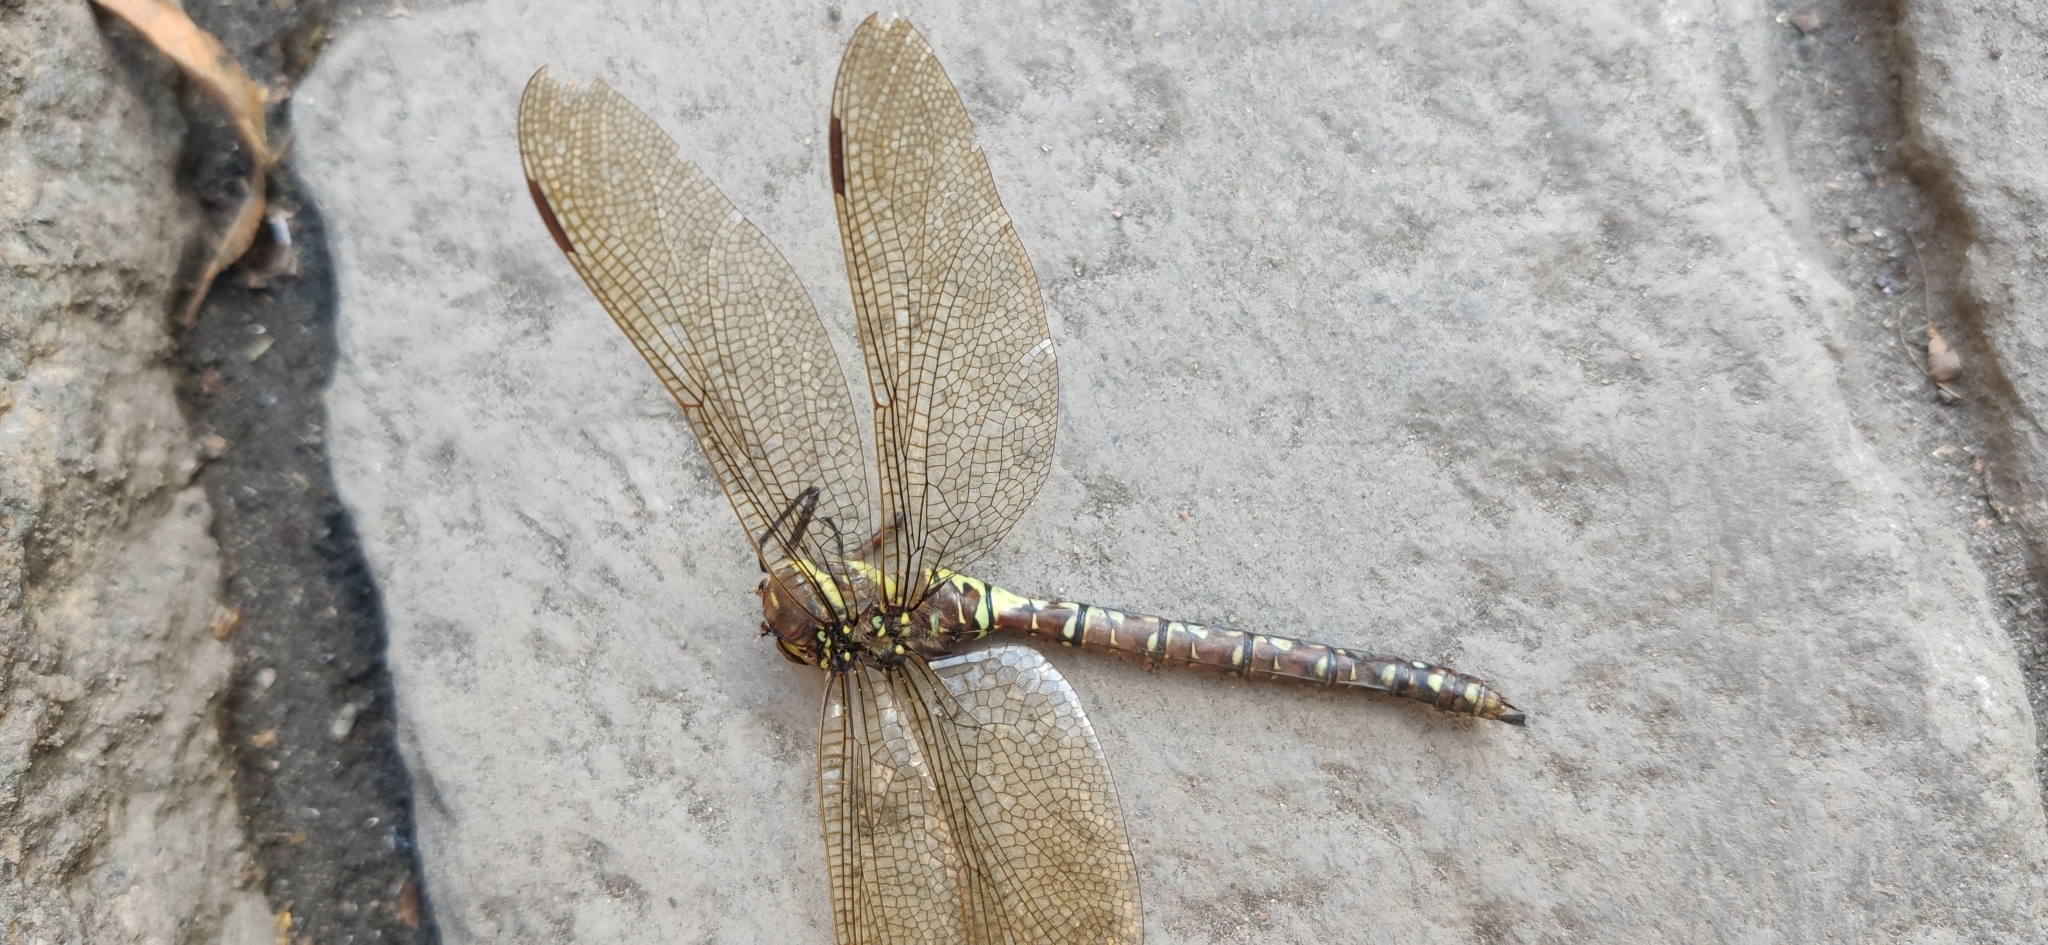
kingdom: Animalia
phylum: Arthropoda
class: Insecta
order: Odonata
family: Aeshnidae
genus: Aeshna
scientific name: Aeshna juncea
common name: Moorland hawker
